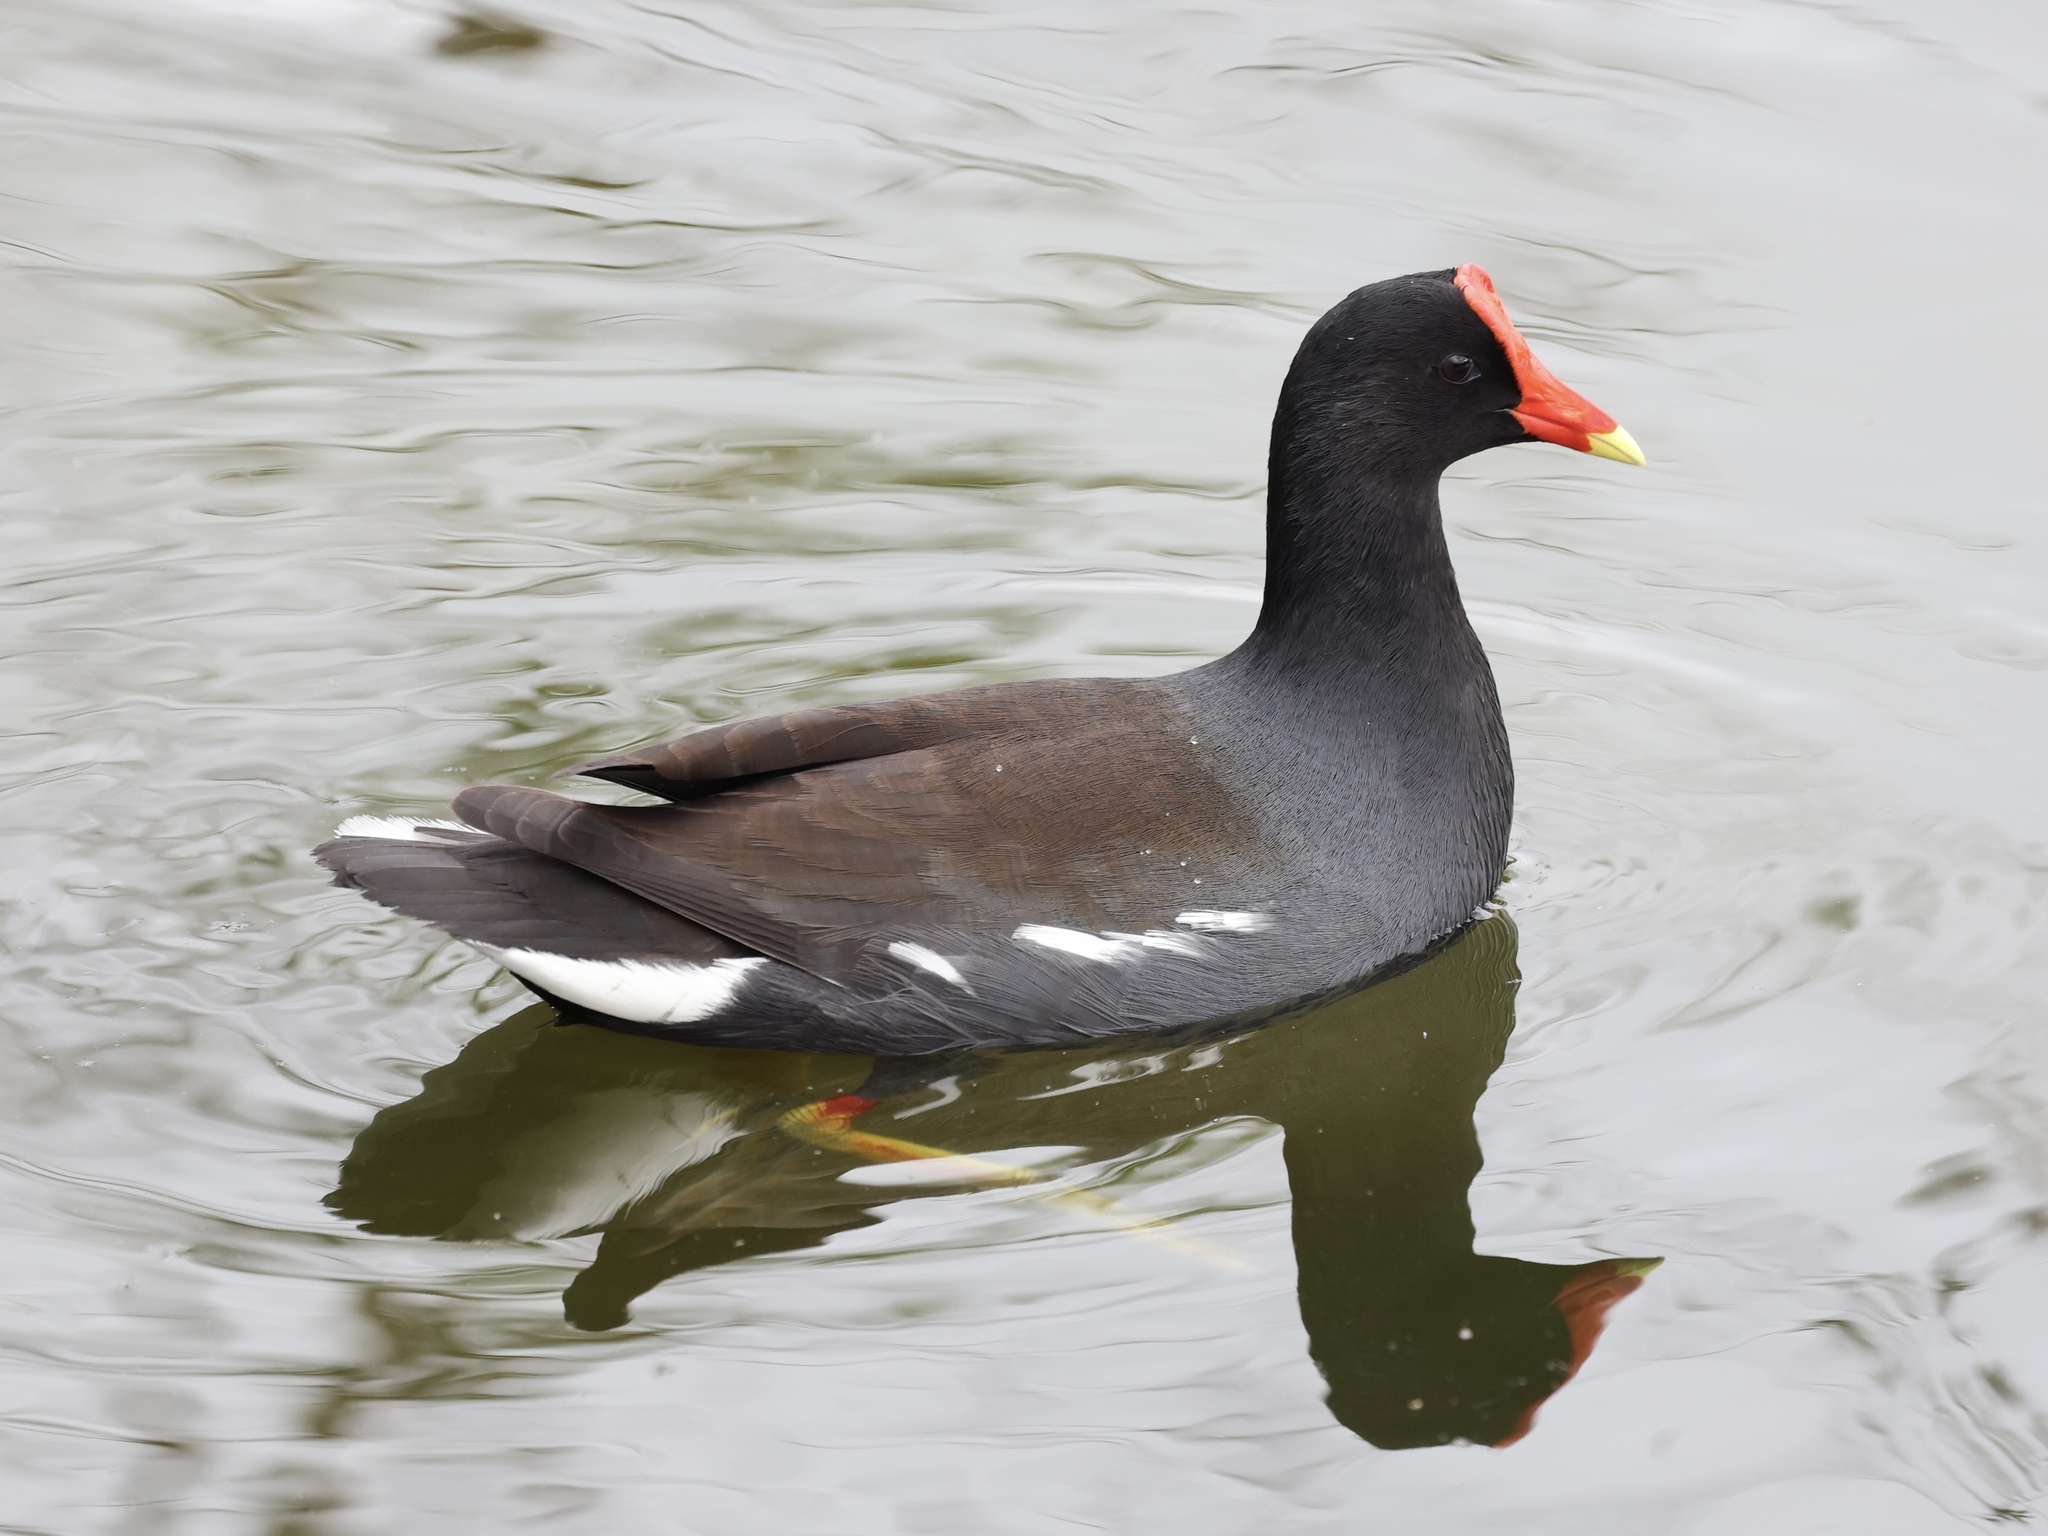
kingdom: Animalia
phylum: Chordata
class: Aves
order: Gruiformes
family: Rallidae
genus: Gallinula
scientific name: Gallinula chloropus
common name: Common moorhen
